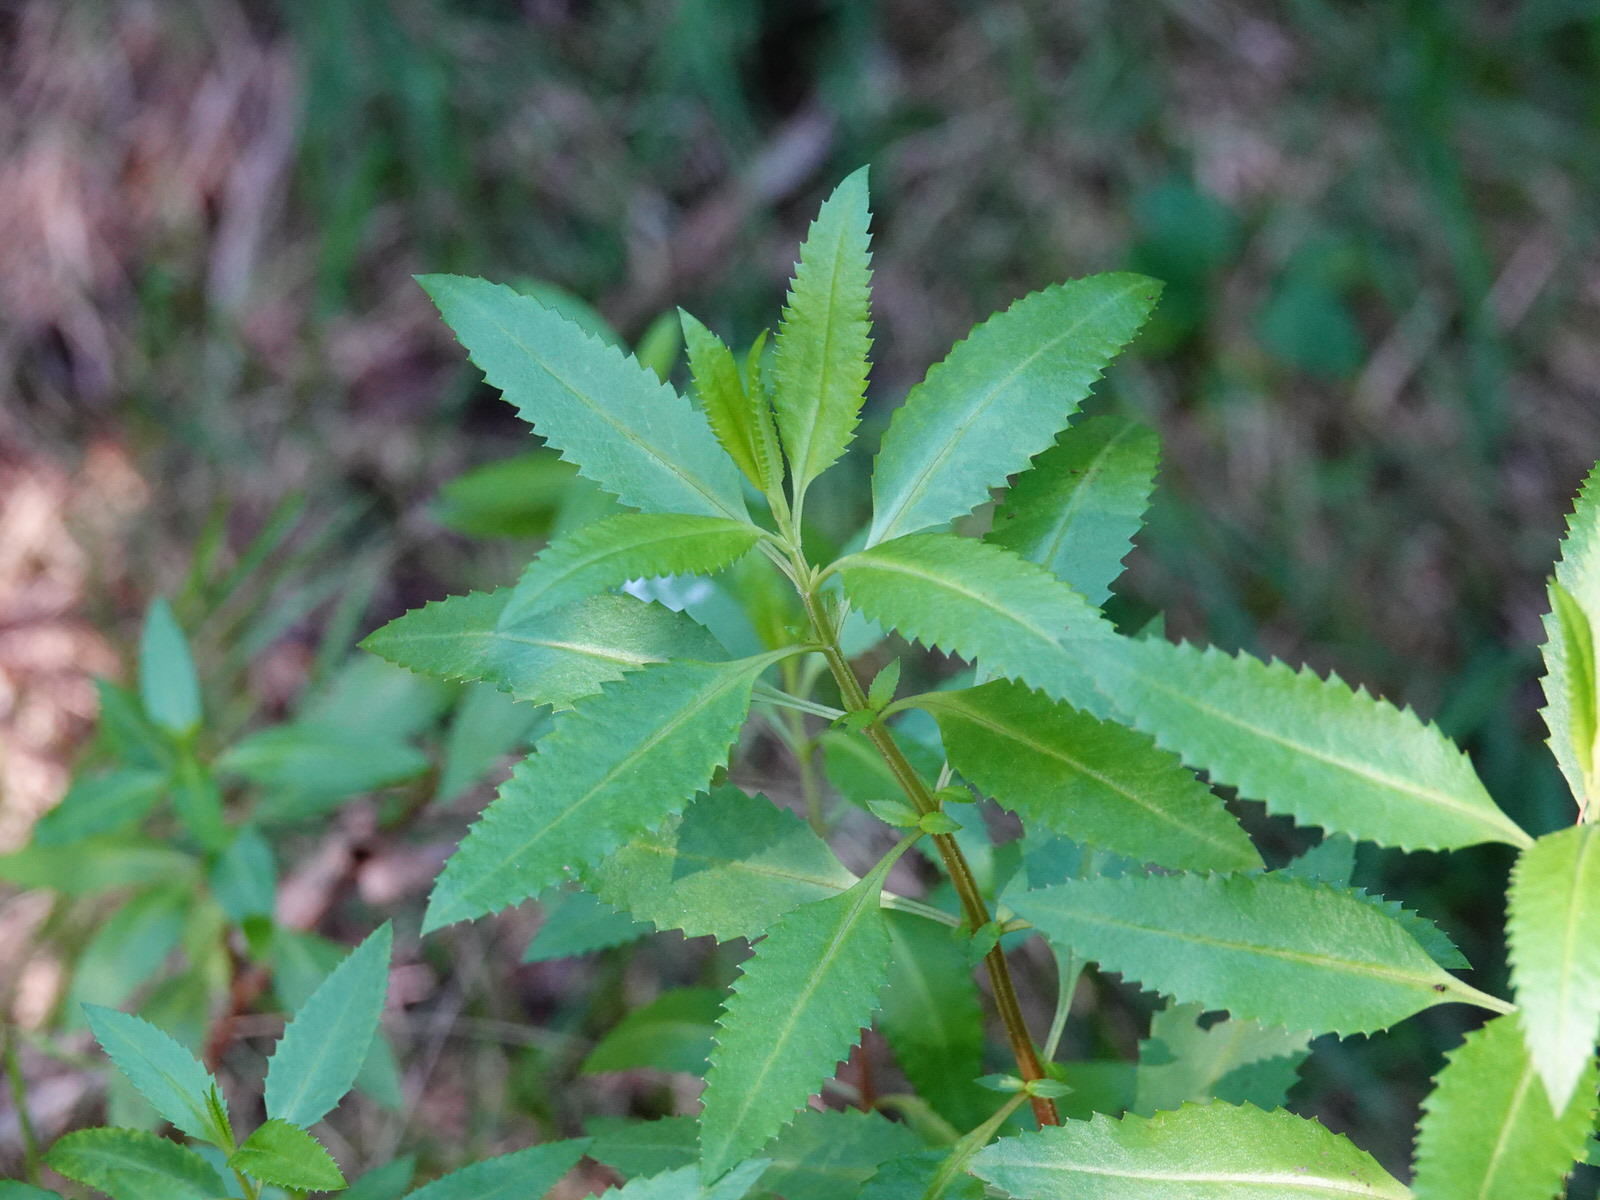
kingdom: Plantae
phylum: Tracheophyta
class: Magnoliopsida
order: Saxifragales
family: Haloragaceae
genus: Haloragis
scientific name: Haloragis erecta
